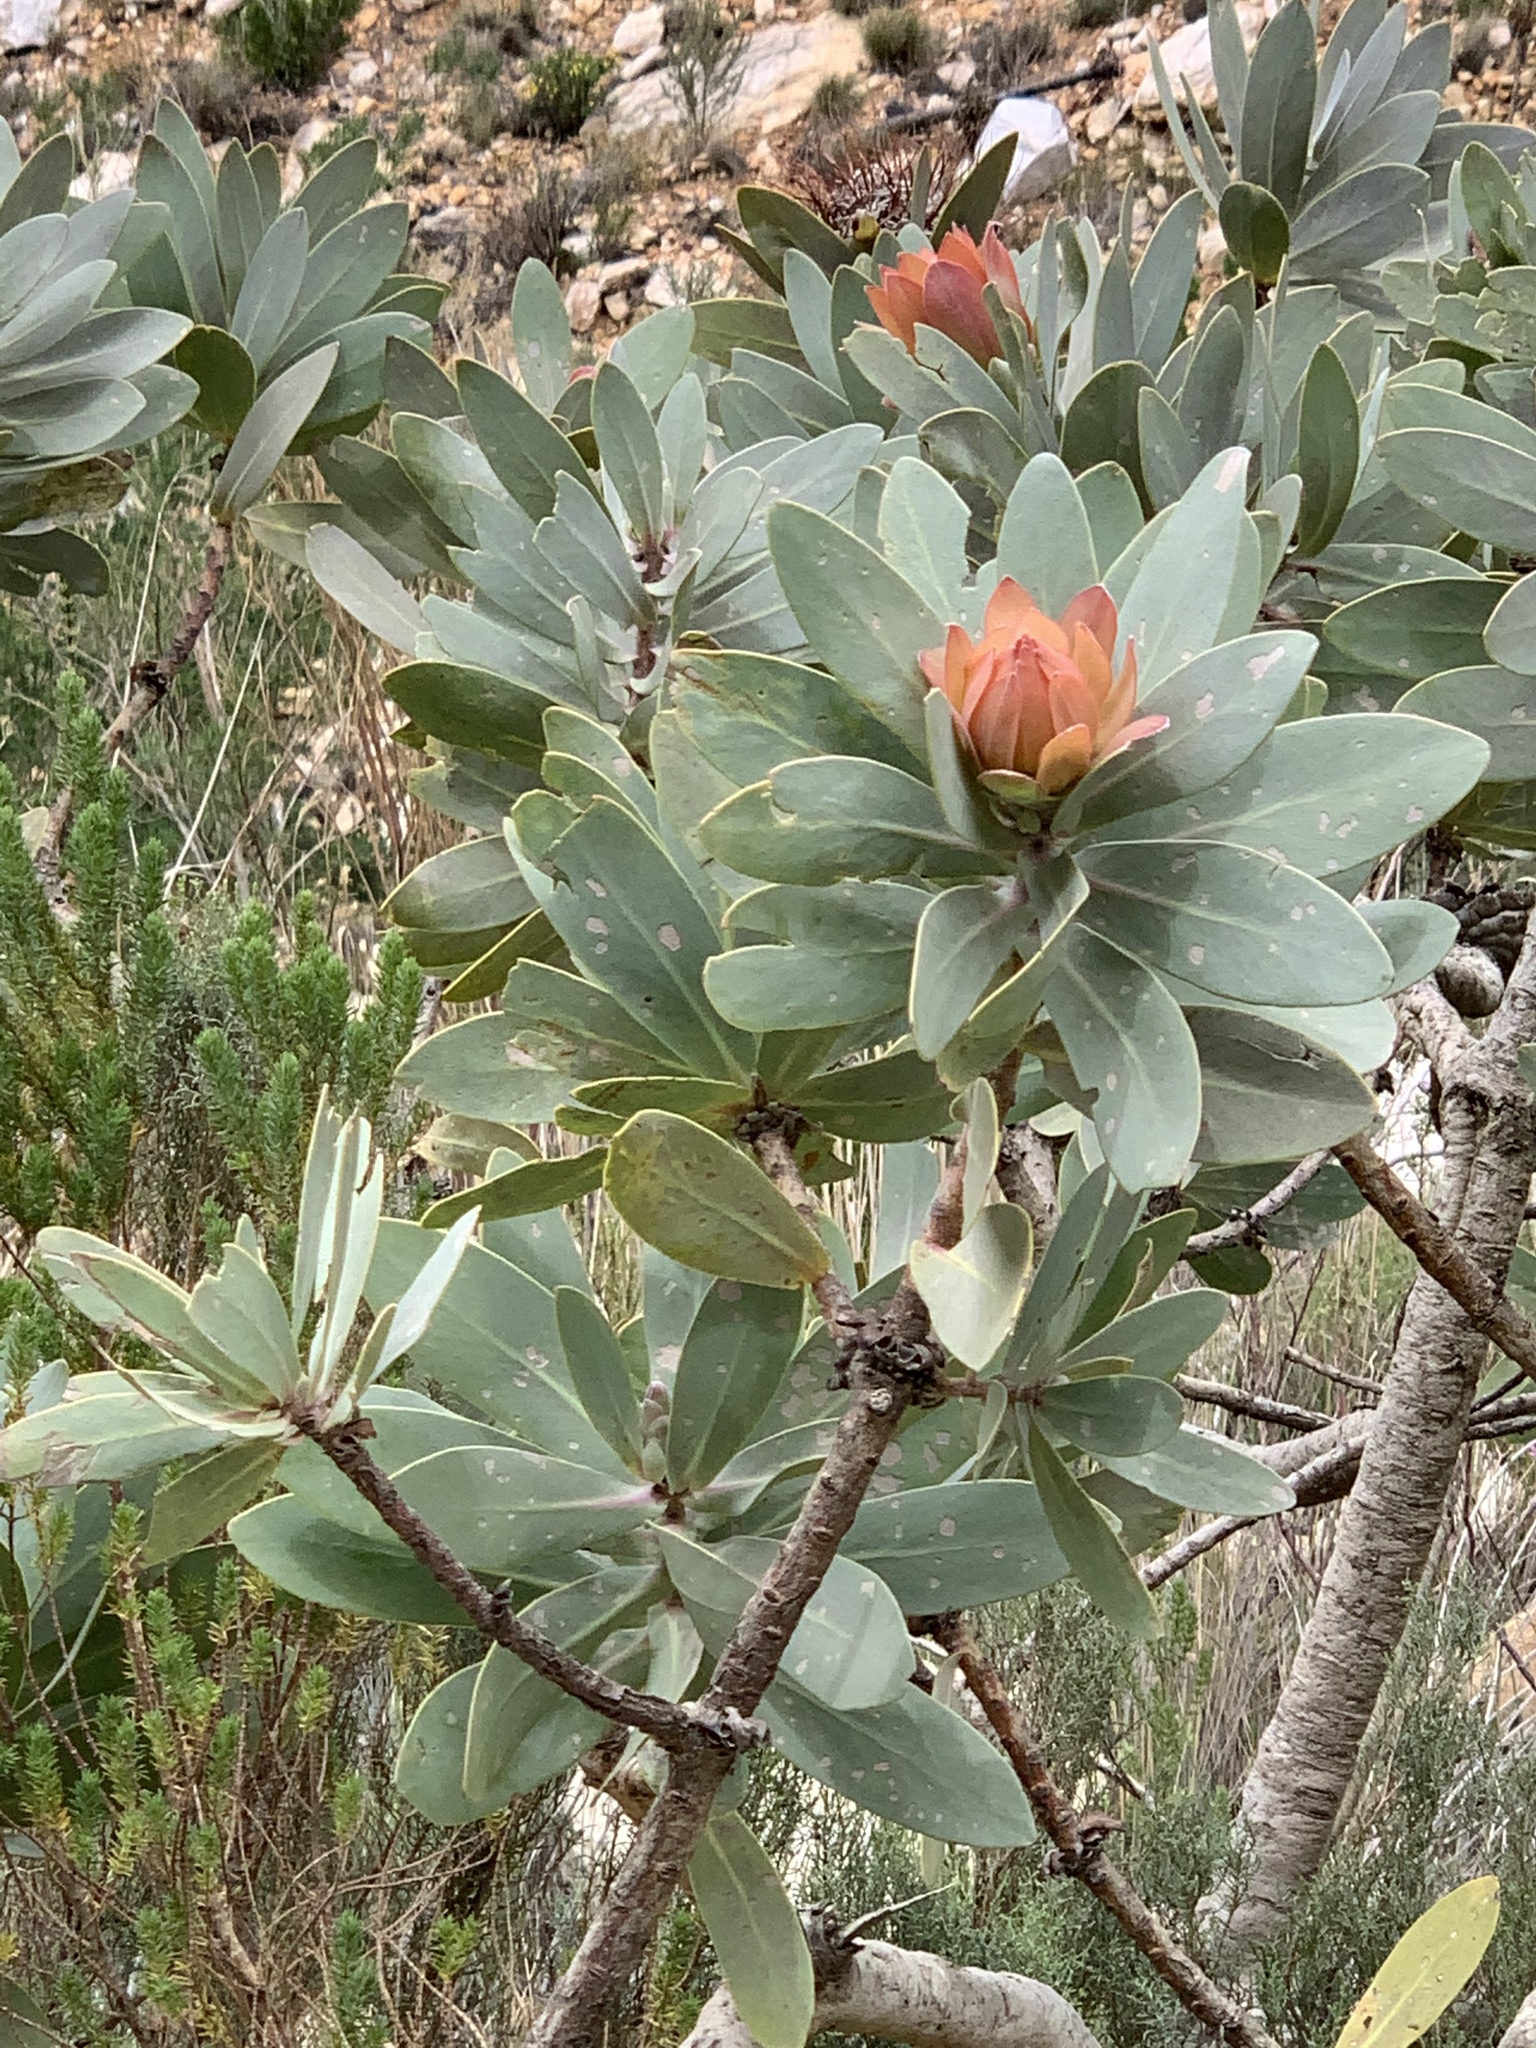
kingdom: Plantae
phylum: Tracheophyta
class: Magnoliopsida
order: Proteales
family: Proteaceae
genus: Protea
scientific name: Protea nitida
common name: Tree protea
